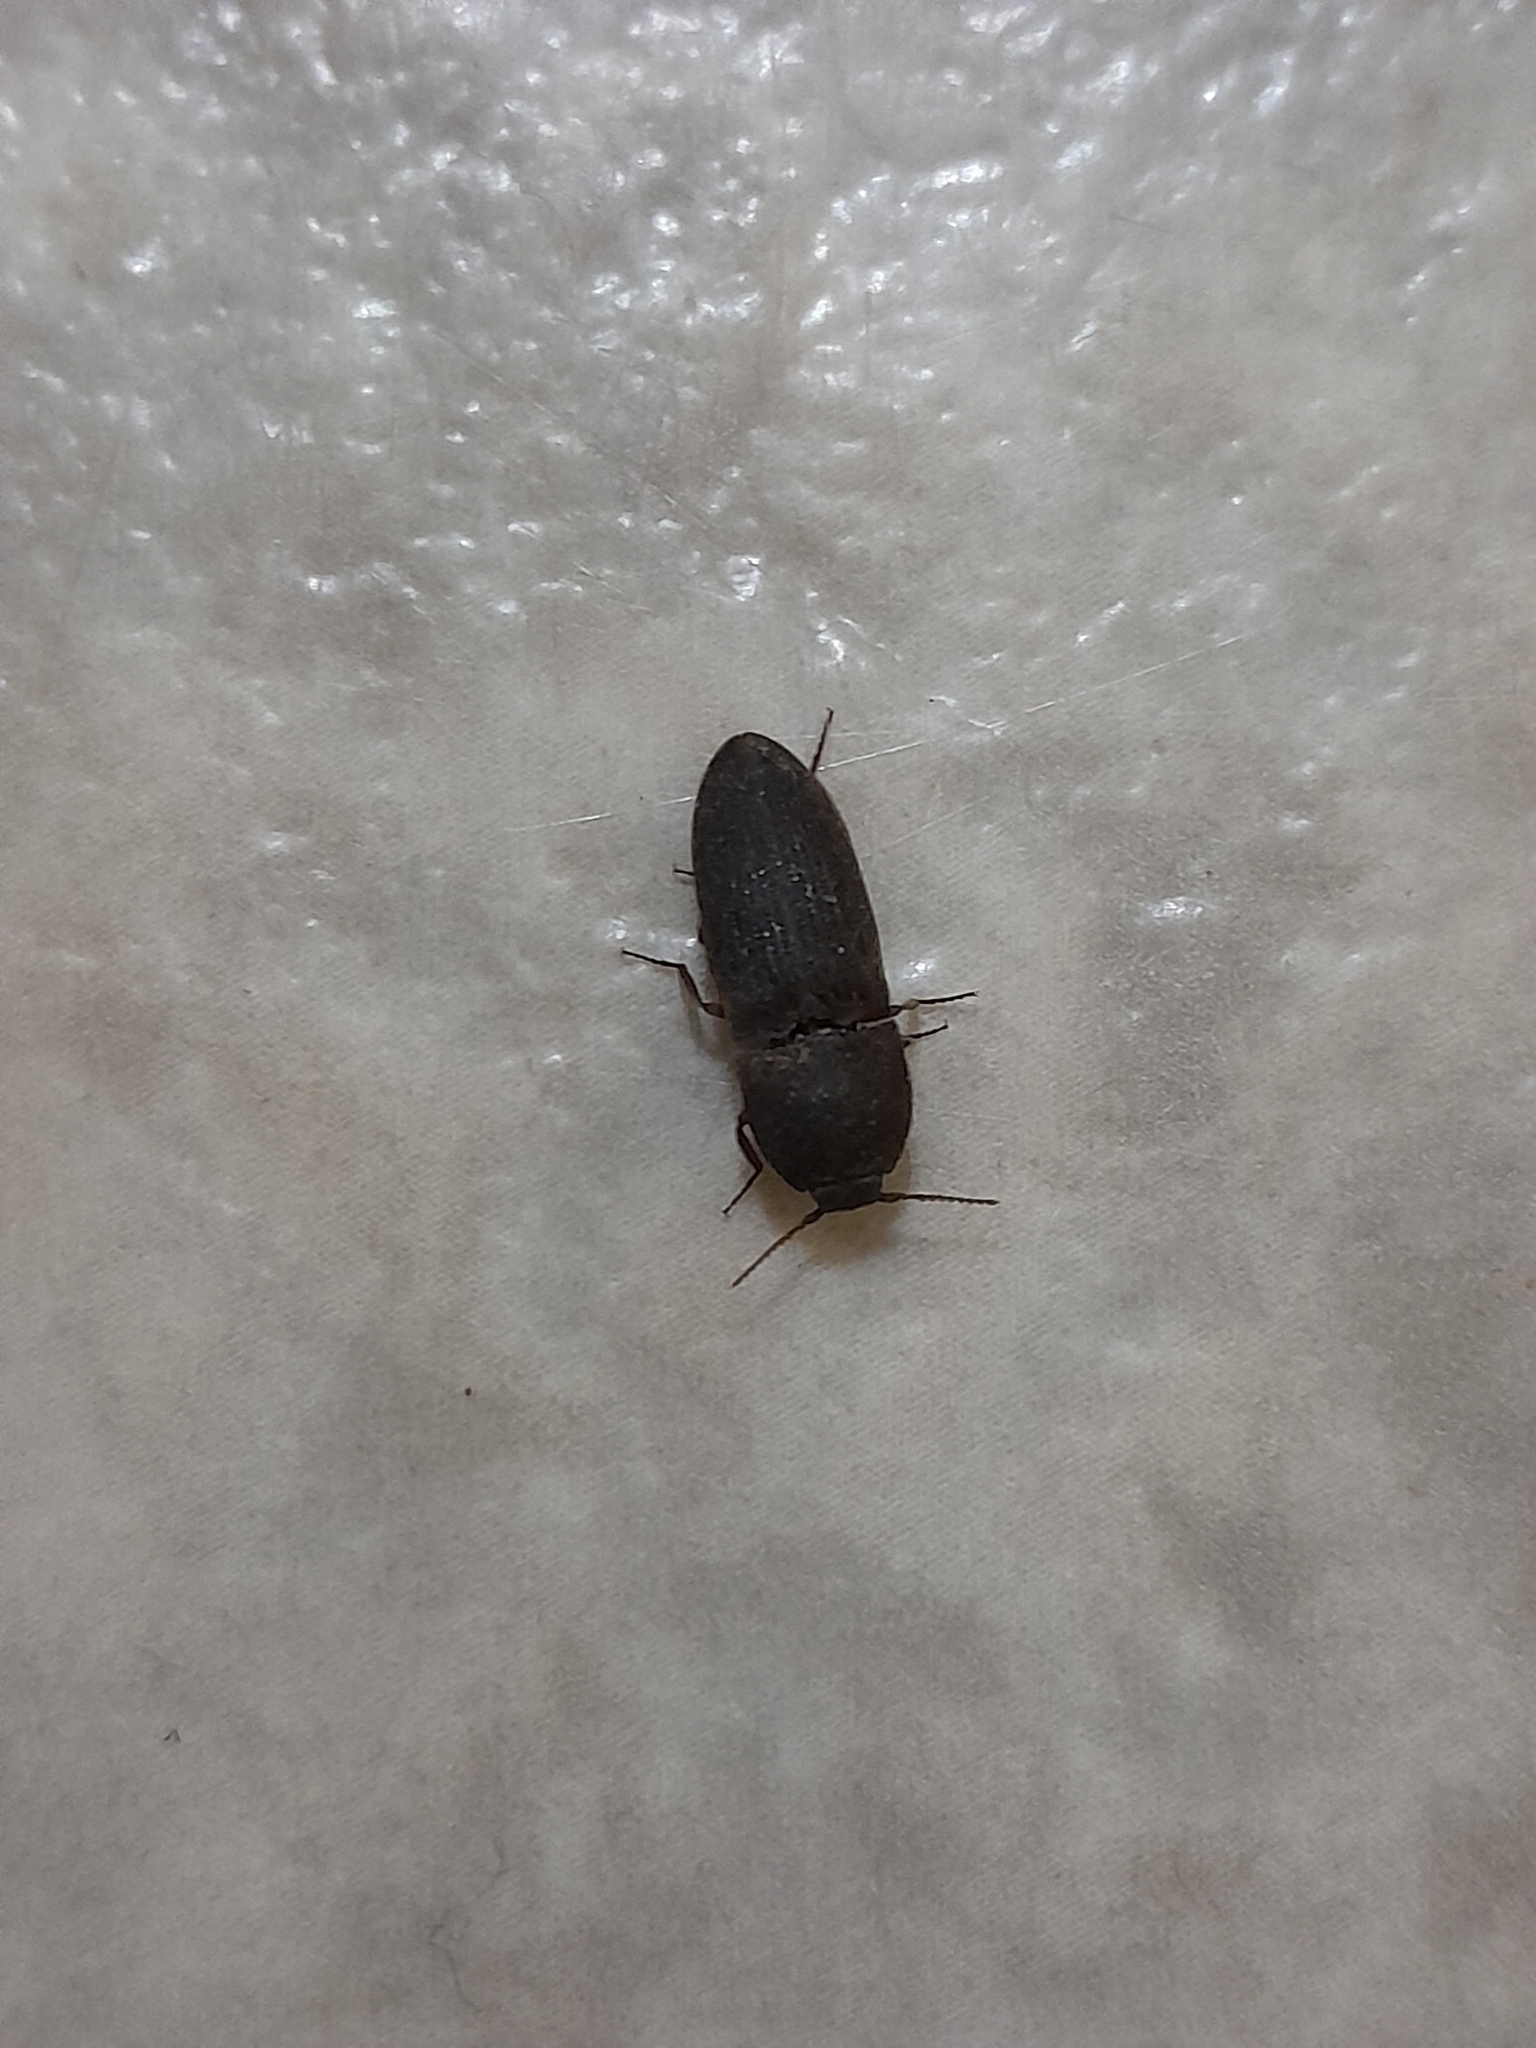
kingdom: Animalia
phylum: Arthropoda
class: Insecta
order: Coleoptera
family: Elateridae
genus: Agrypnus
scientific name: Agrypnus rectangularis
